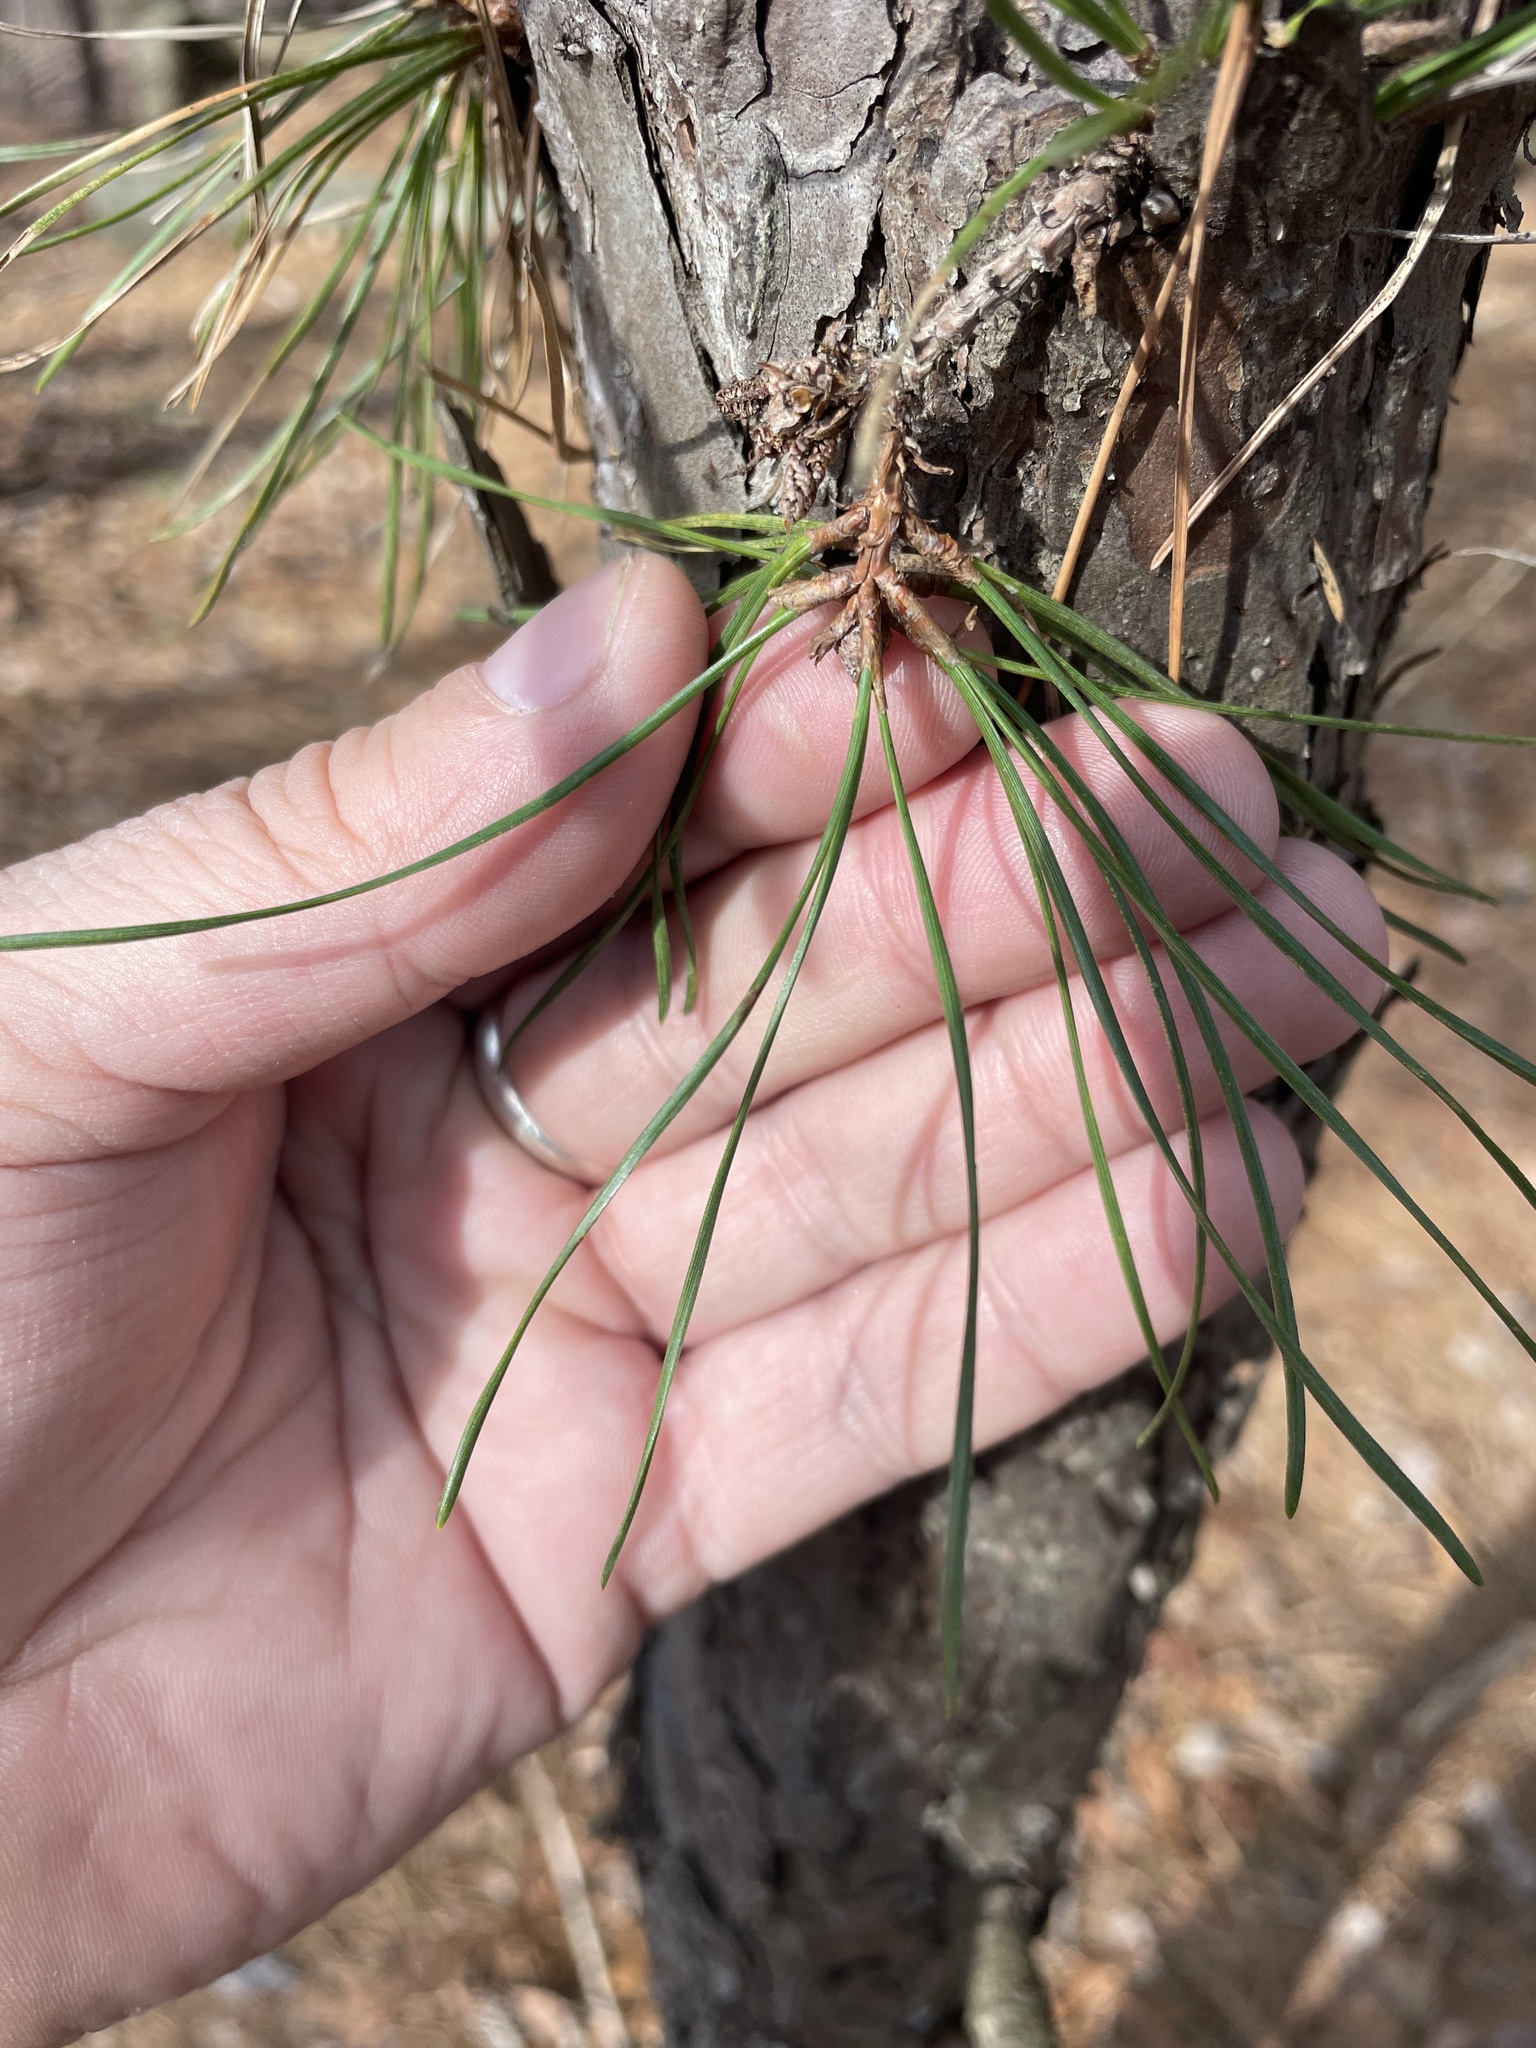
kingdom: Plantae
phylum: Tracheophyta
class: Pinopsida
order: Pinales
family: Pinaceae
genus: Pinus
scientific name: Pinus rigida
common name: Pitch pine
